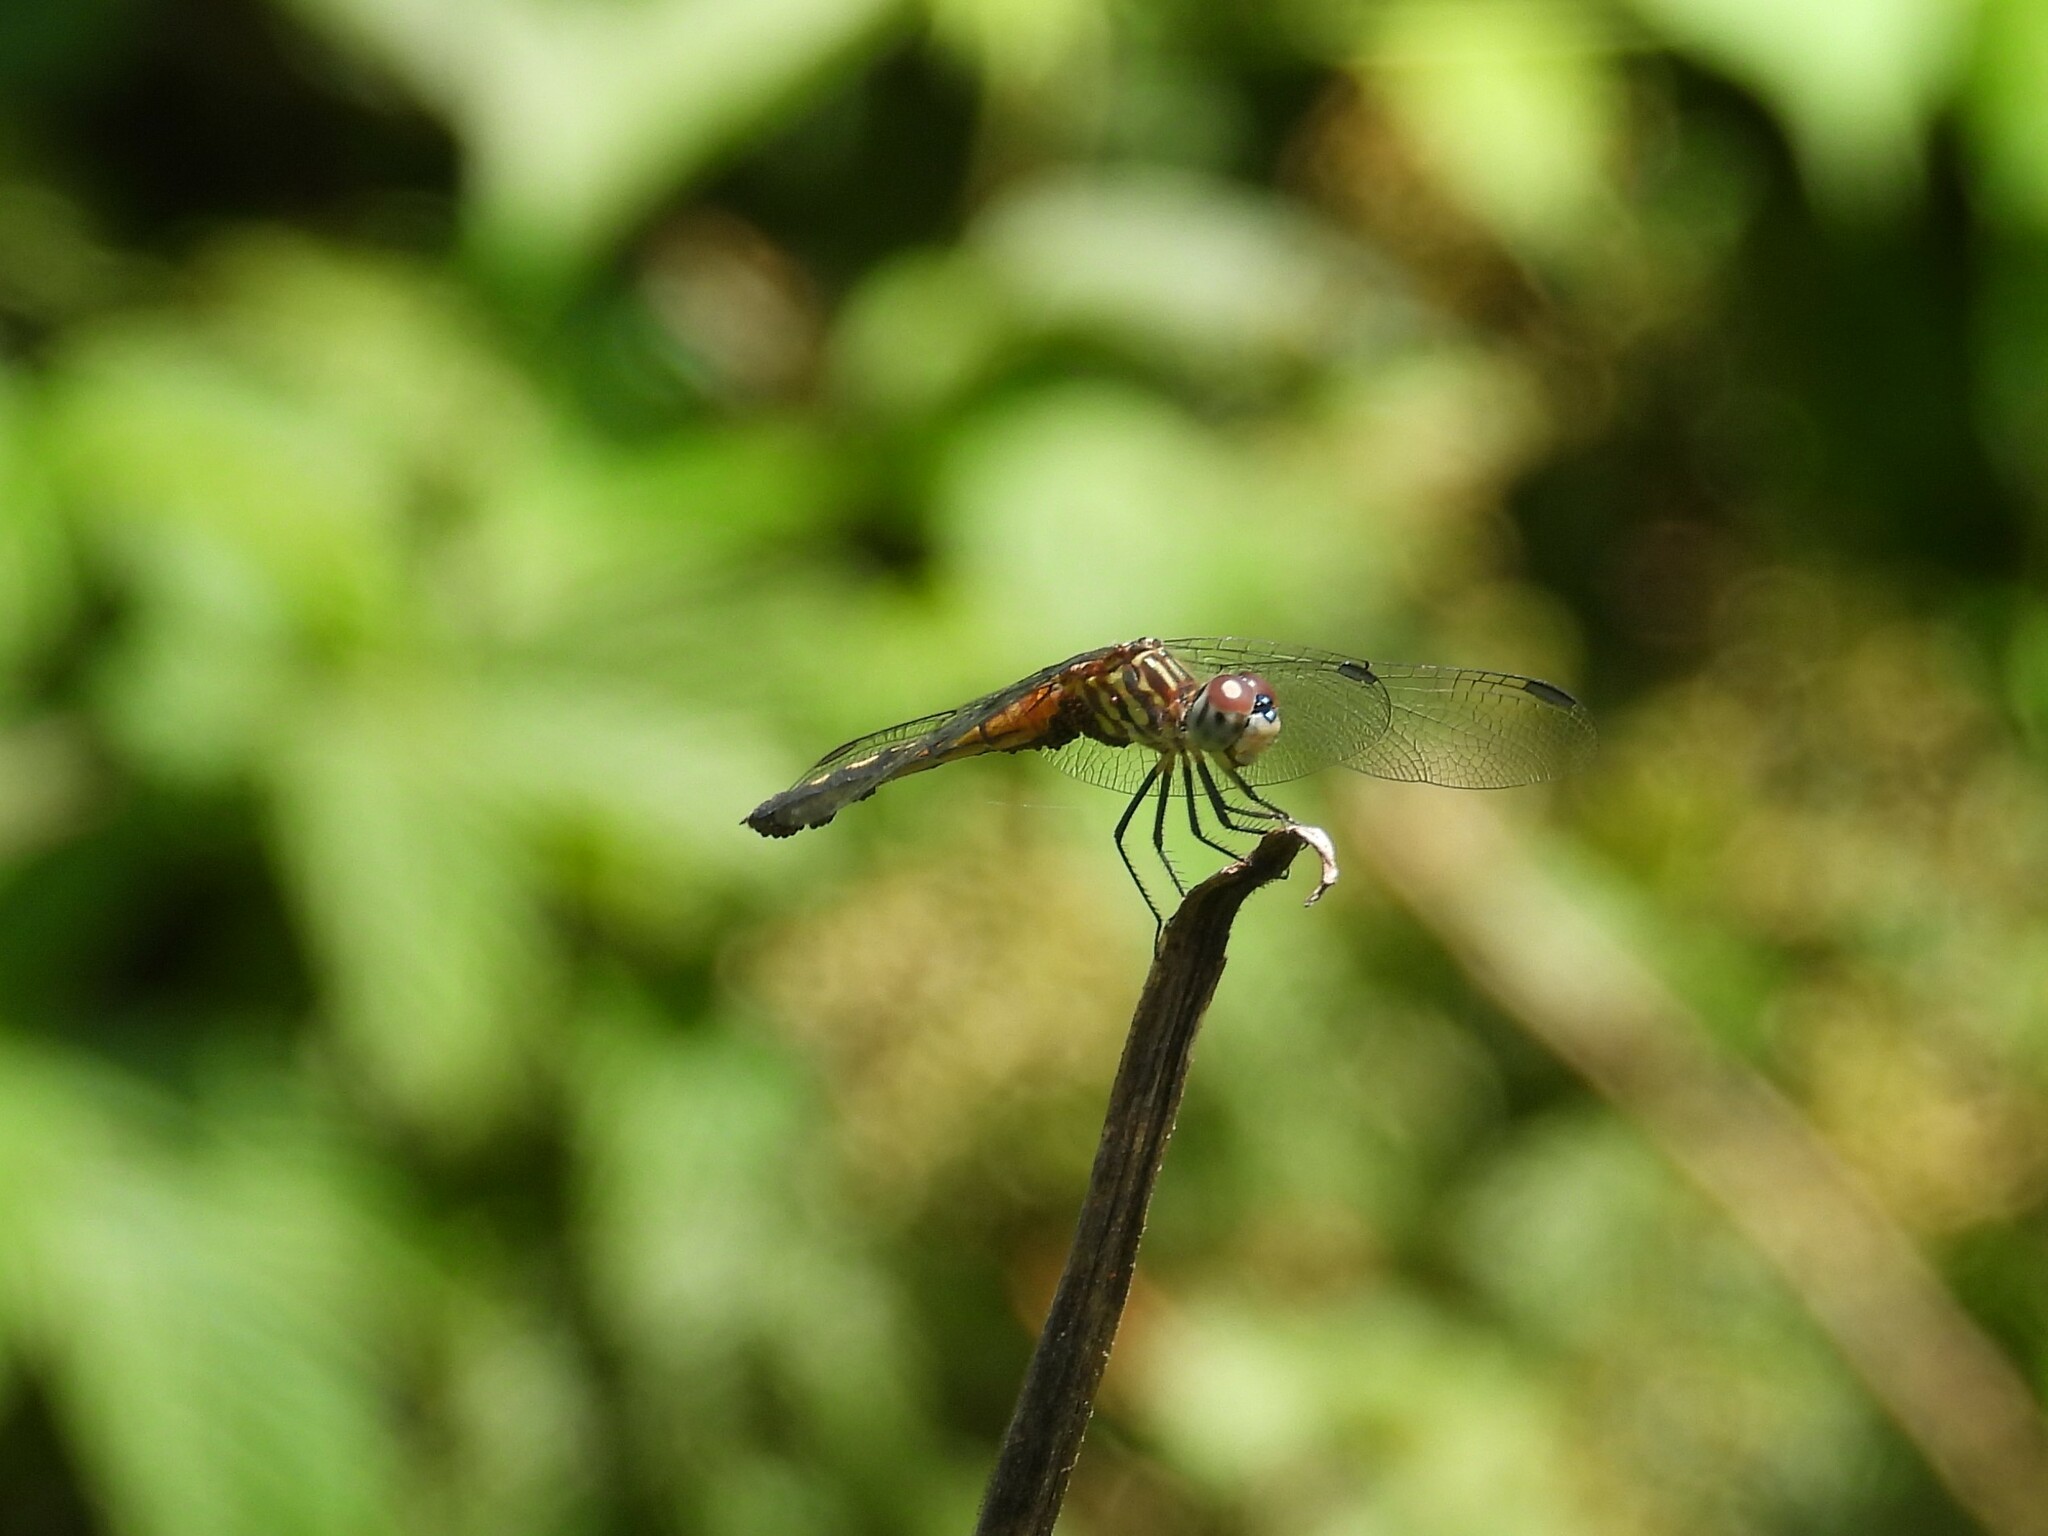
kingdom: Animalia
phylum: Arthropoda
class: Insecta
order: Odonata
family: Libellulidae
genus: Pachydiplax
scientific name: Pachydiplax longipennis
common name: Blue dasher
